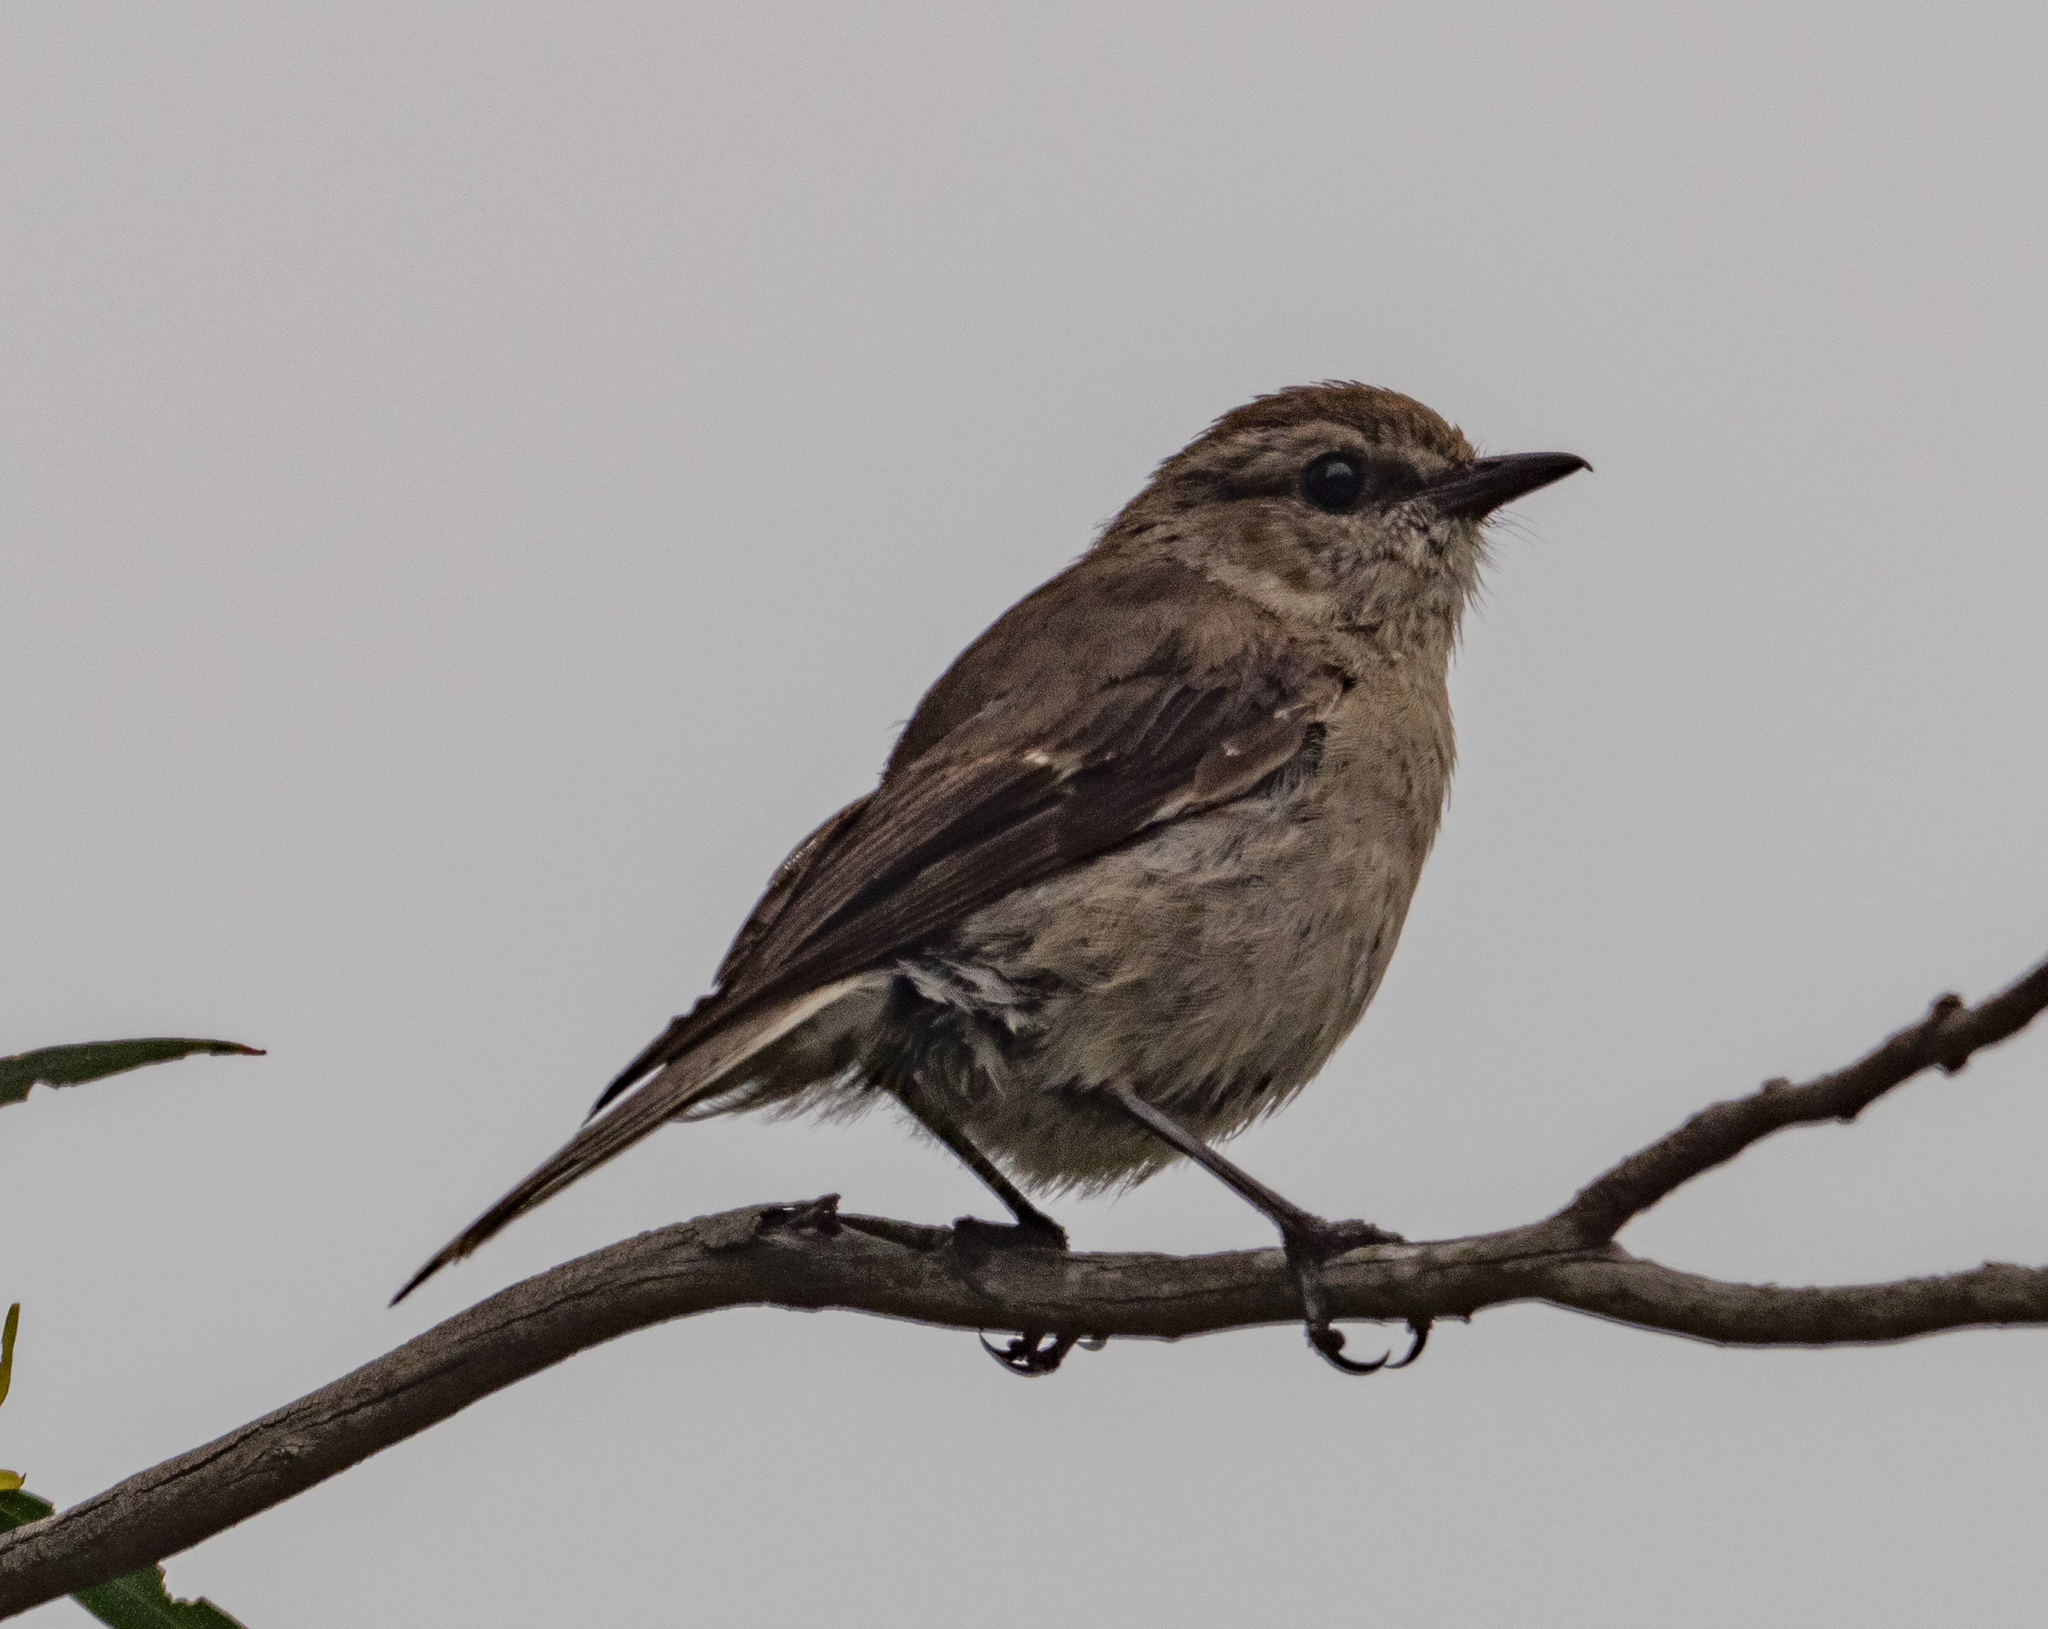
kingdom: Animalia
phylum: Chordata
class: Aves
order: Passeriformes
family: Petroicidae
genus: Melanodryas
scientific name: Melanodryas vittata
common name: Dusky robin
